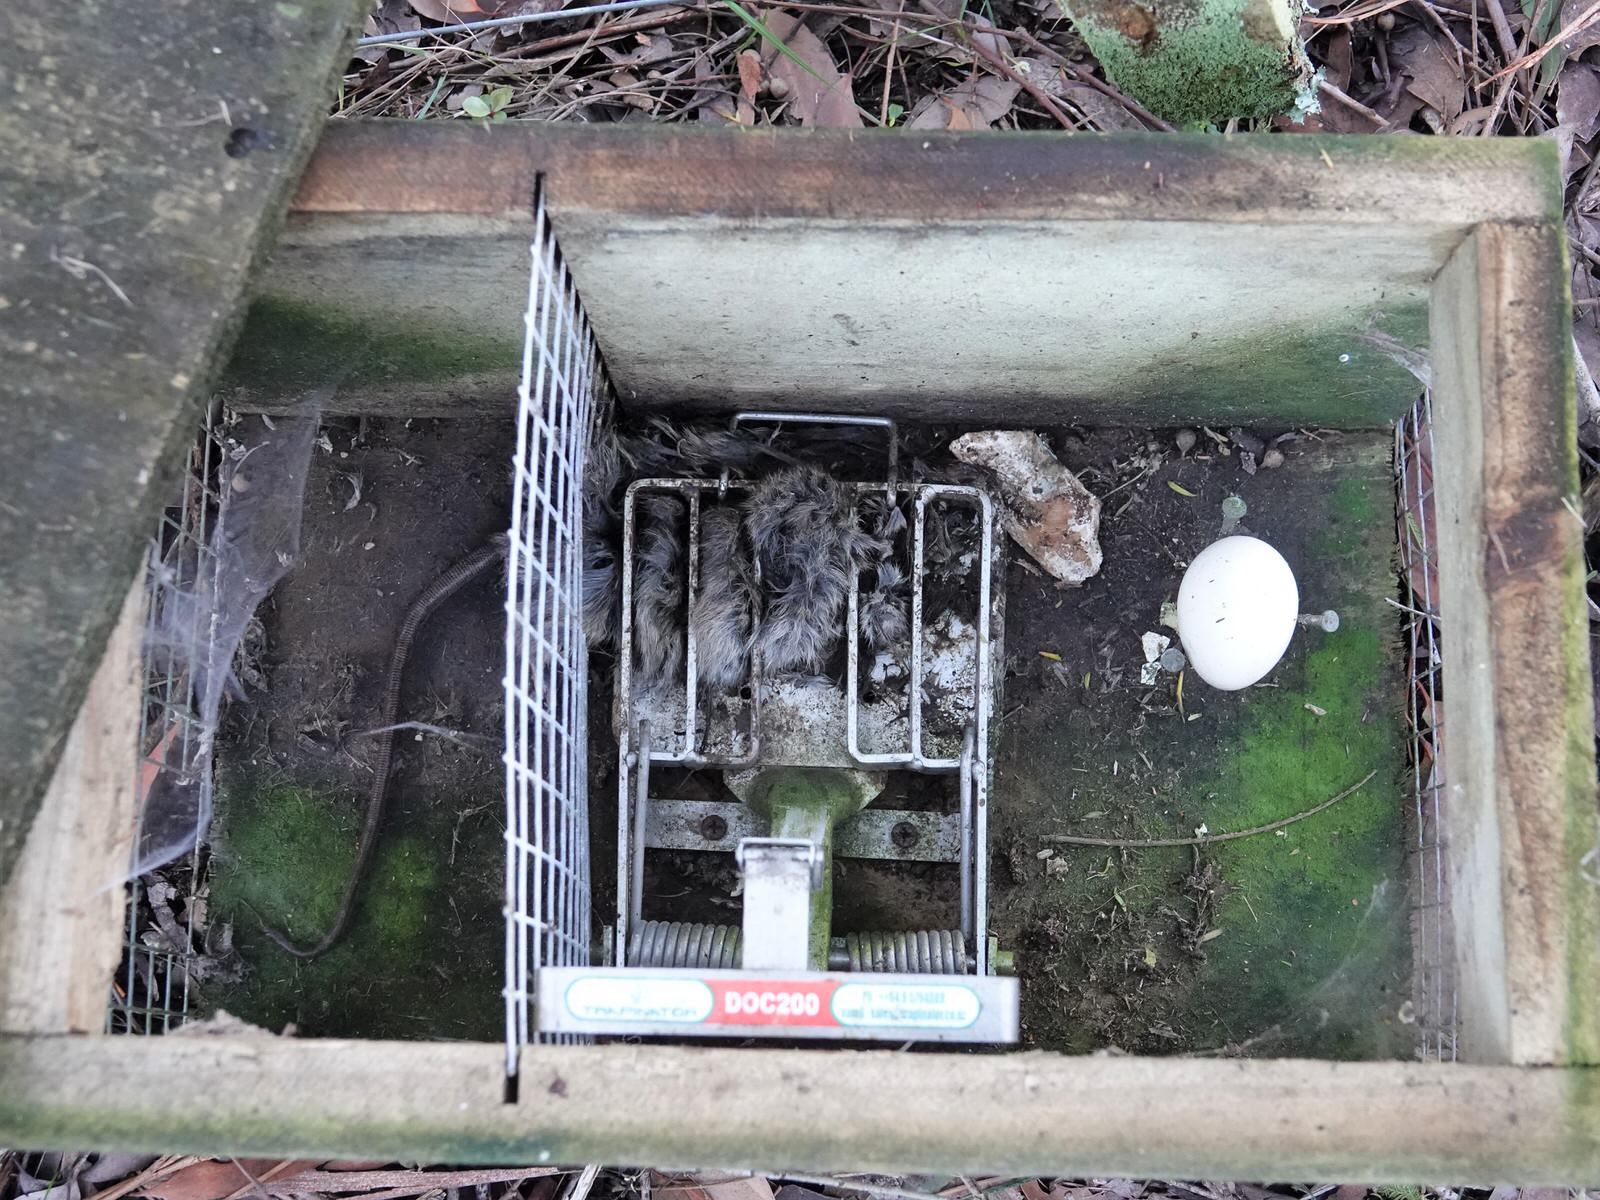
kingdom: Animalia
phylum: Chordata
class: Mammalia
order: Rodentia
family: Muridae
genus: Rattus
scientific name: Rattus rattus
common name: Black rat
